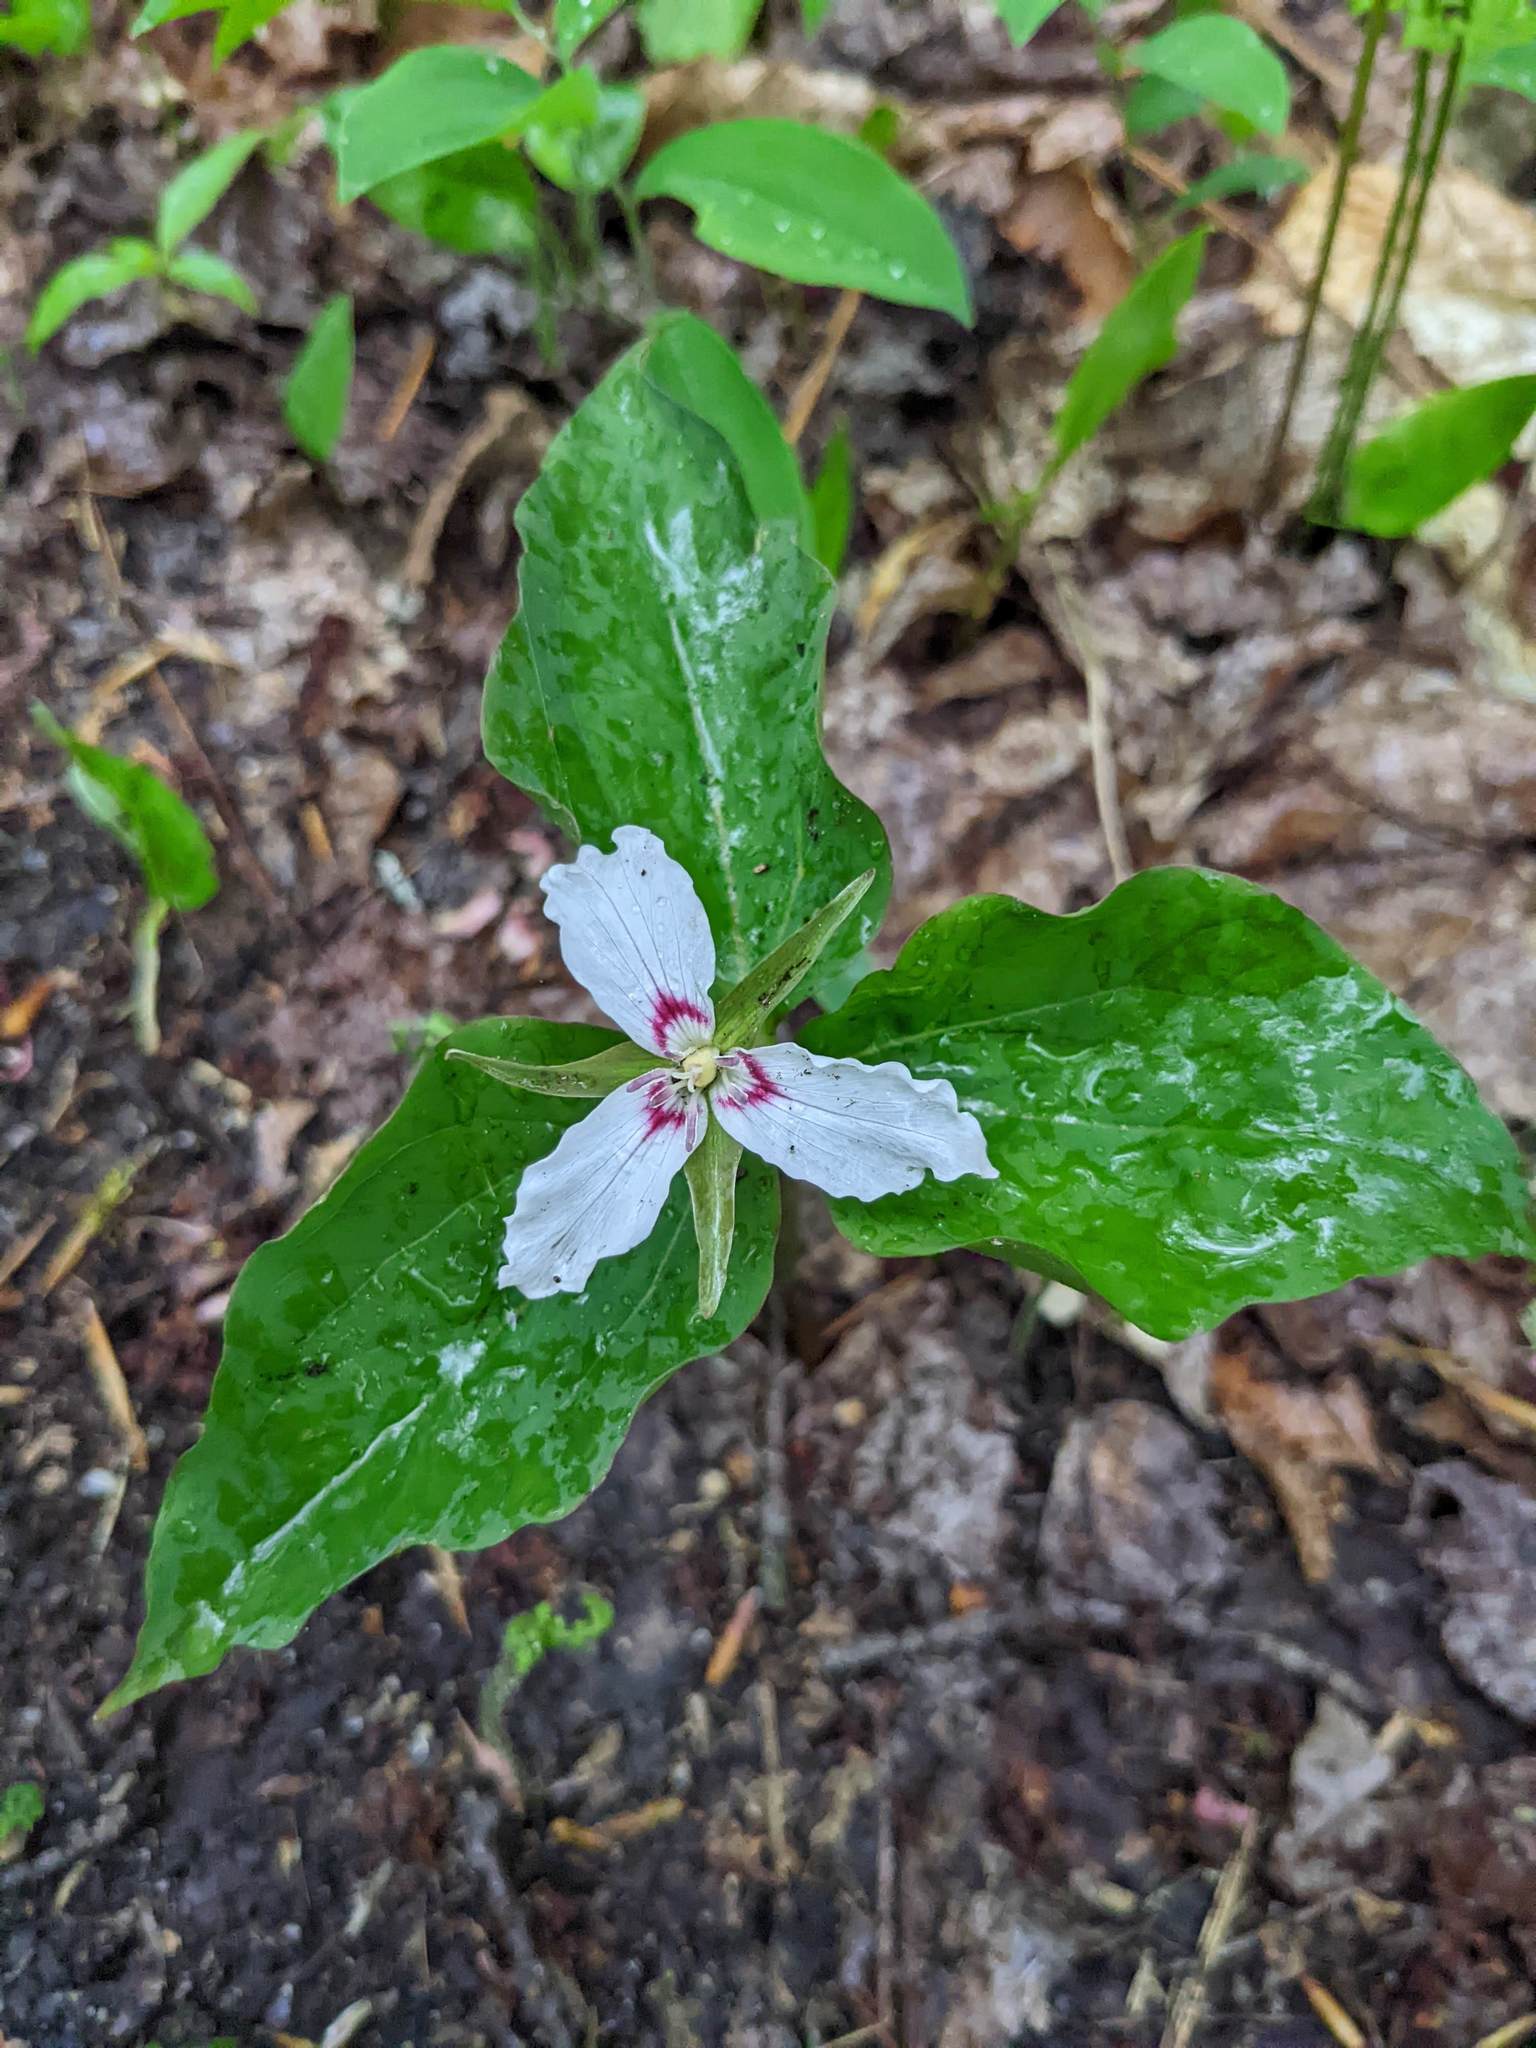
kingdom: Plantae
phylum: Tracheophyta
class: Liliopsida
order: Liliales
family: Melanthiaceae
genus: Trillium
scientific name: Trillium undulatum
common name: Paint trillium
